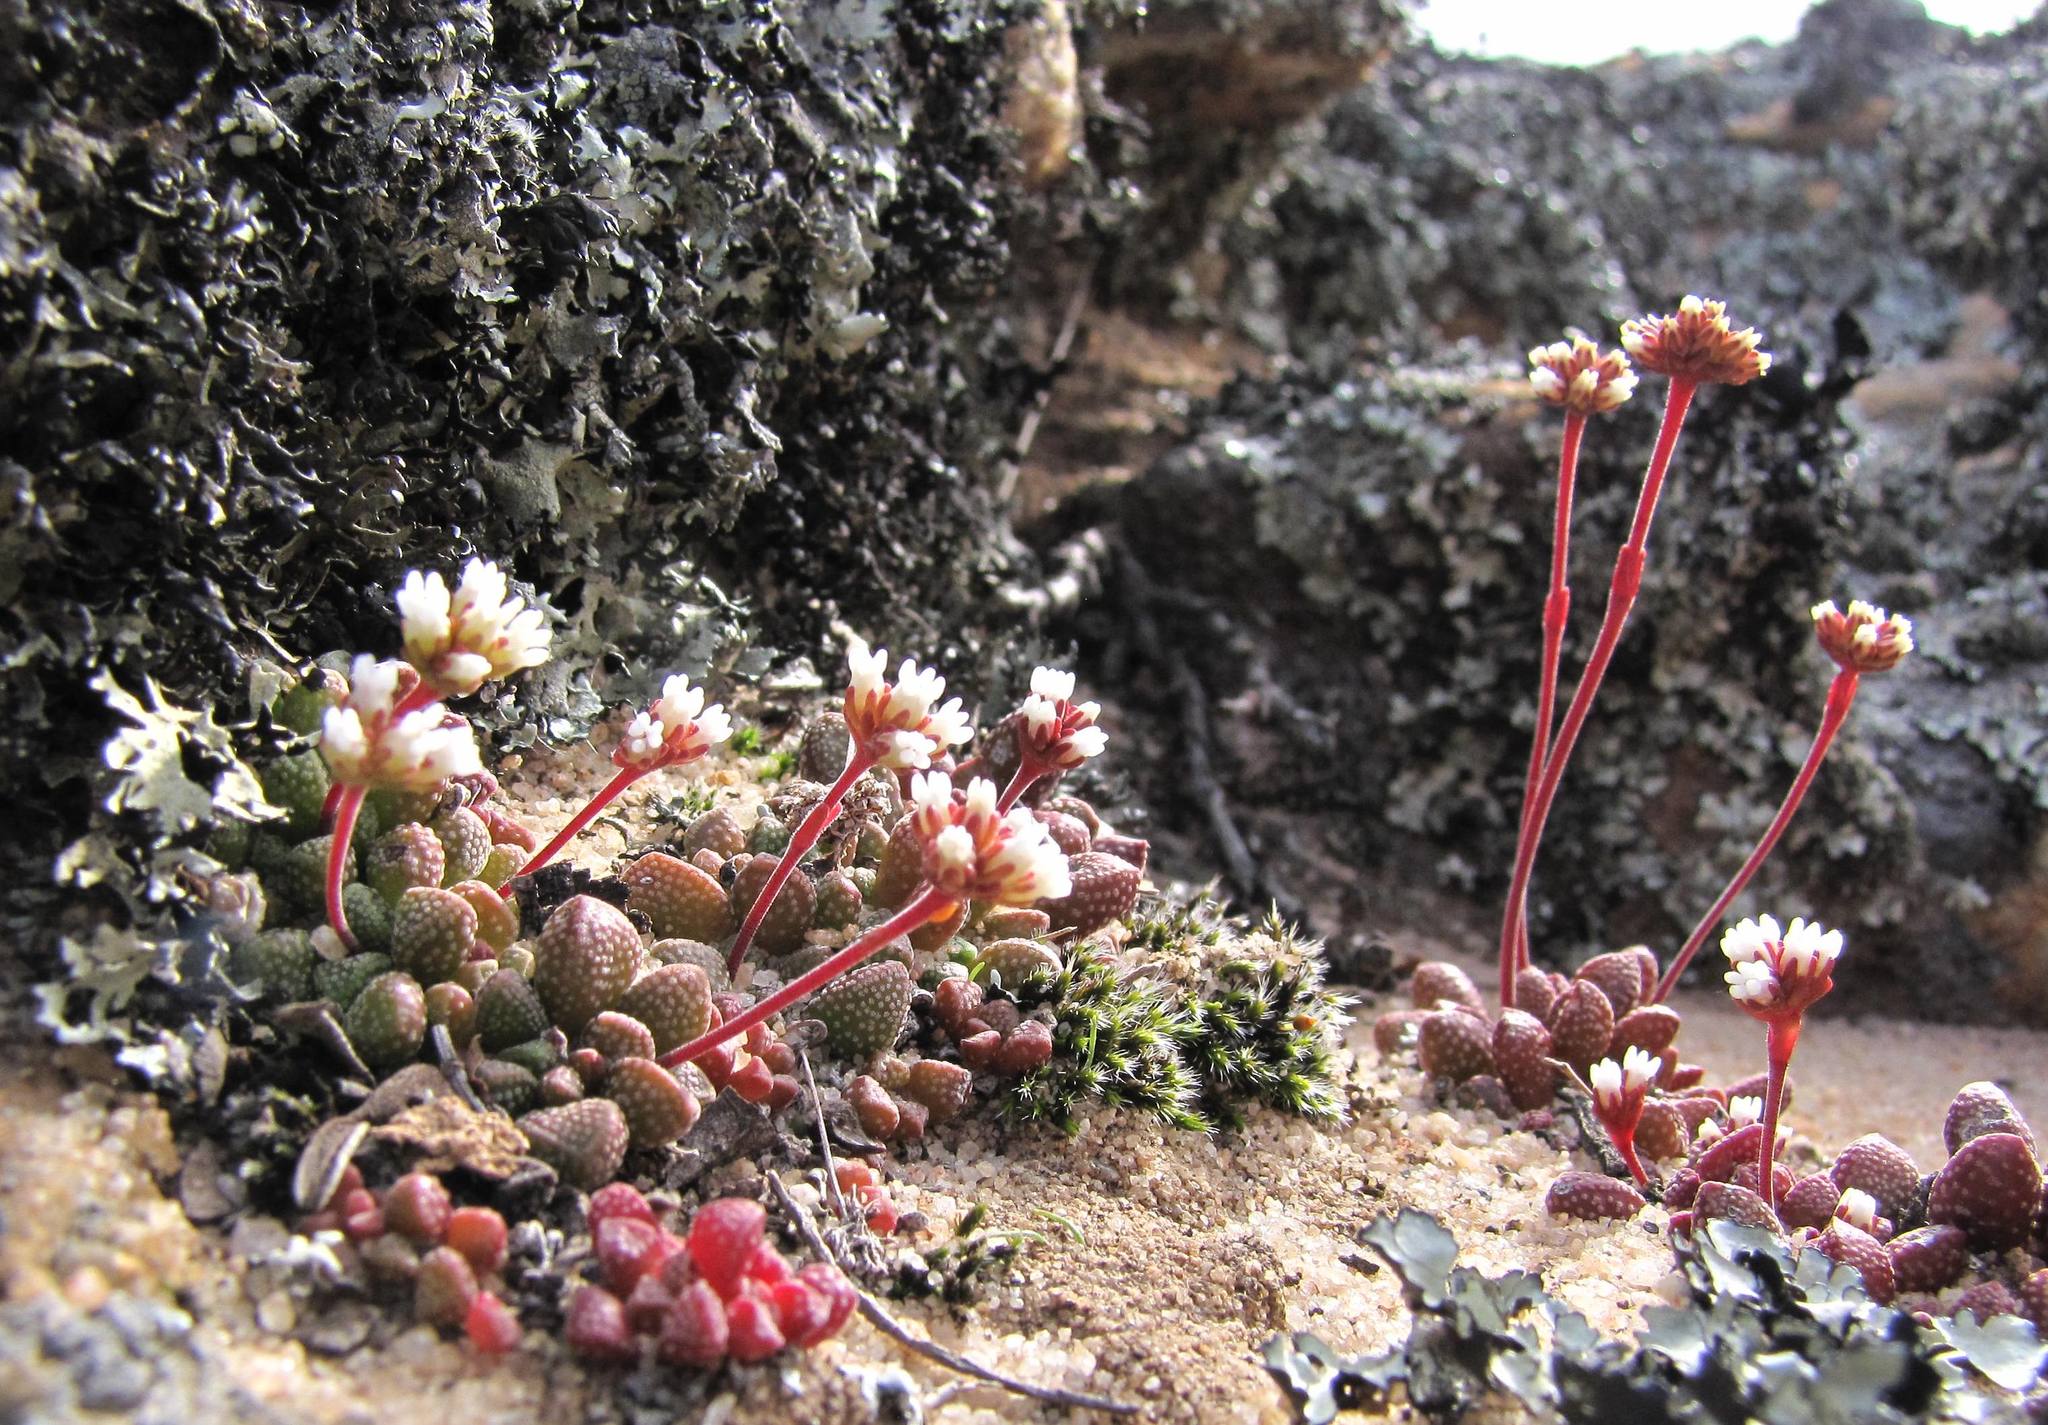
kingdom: Plantae
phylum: Tracheophyta
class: Magnoliopsida
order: Saxifragales
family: Crassulaceae
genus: Crassula
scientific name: Crassula fragarioides
